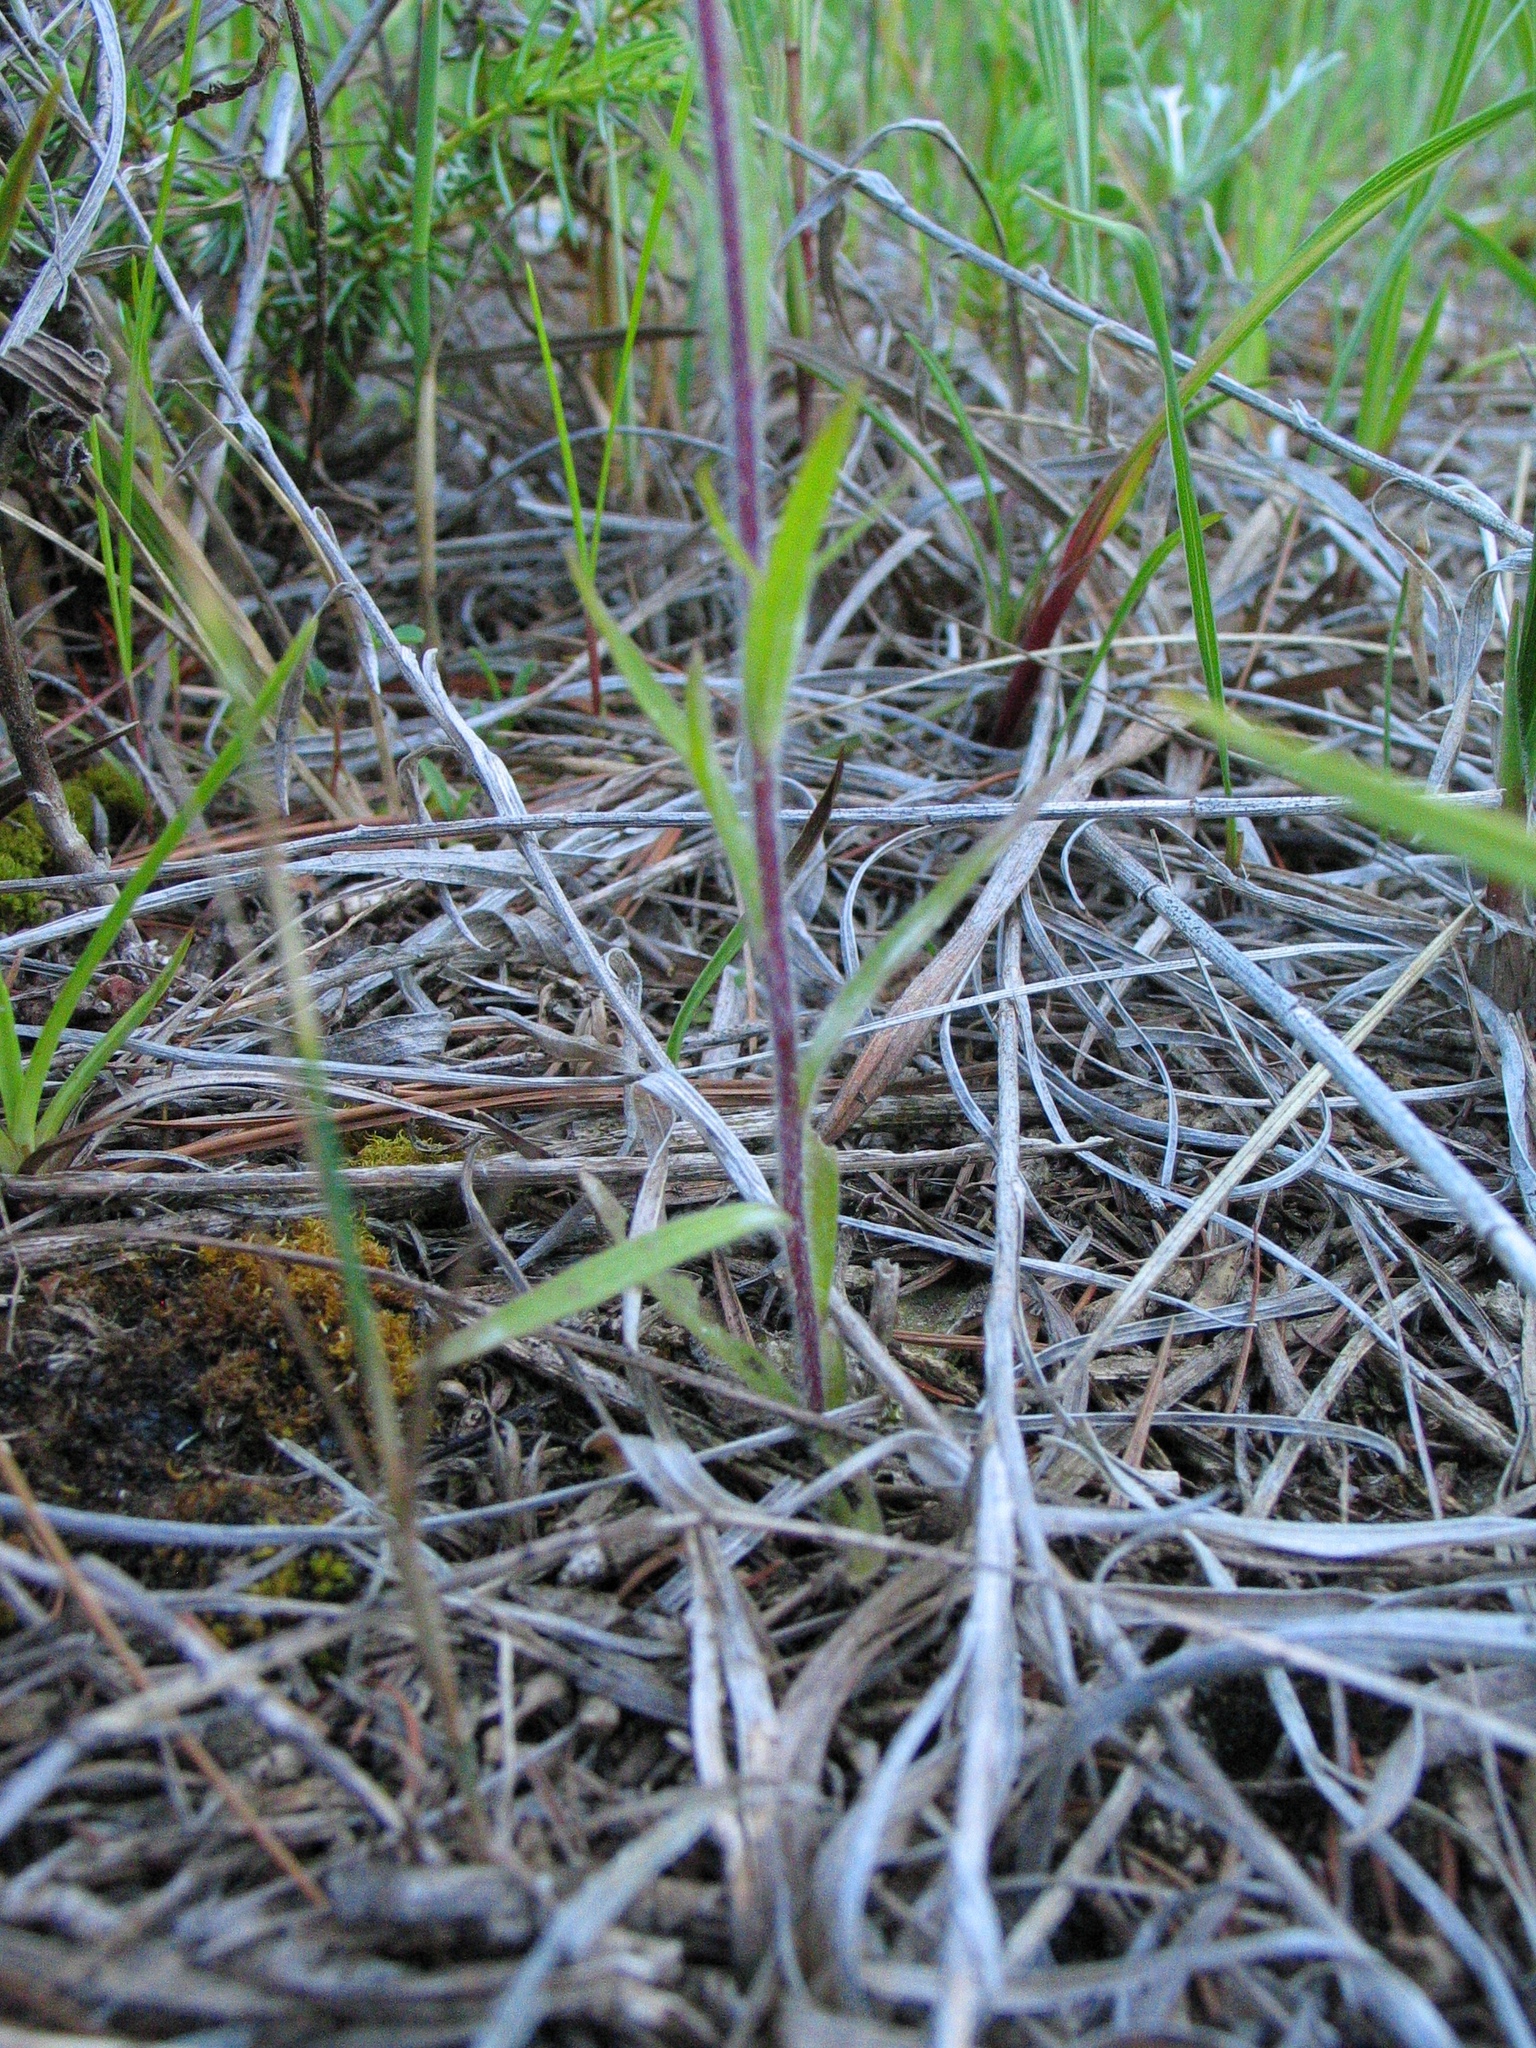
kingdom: Plantae
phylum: Tracheophyta
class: Magnoliopsida
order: Lamiales
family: Orobanchaceae
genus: Castilleja
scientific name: Castilleja coccinea
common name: Scarlet paintbrush
